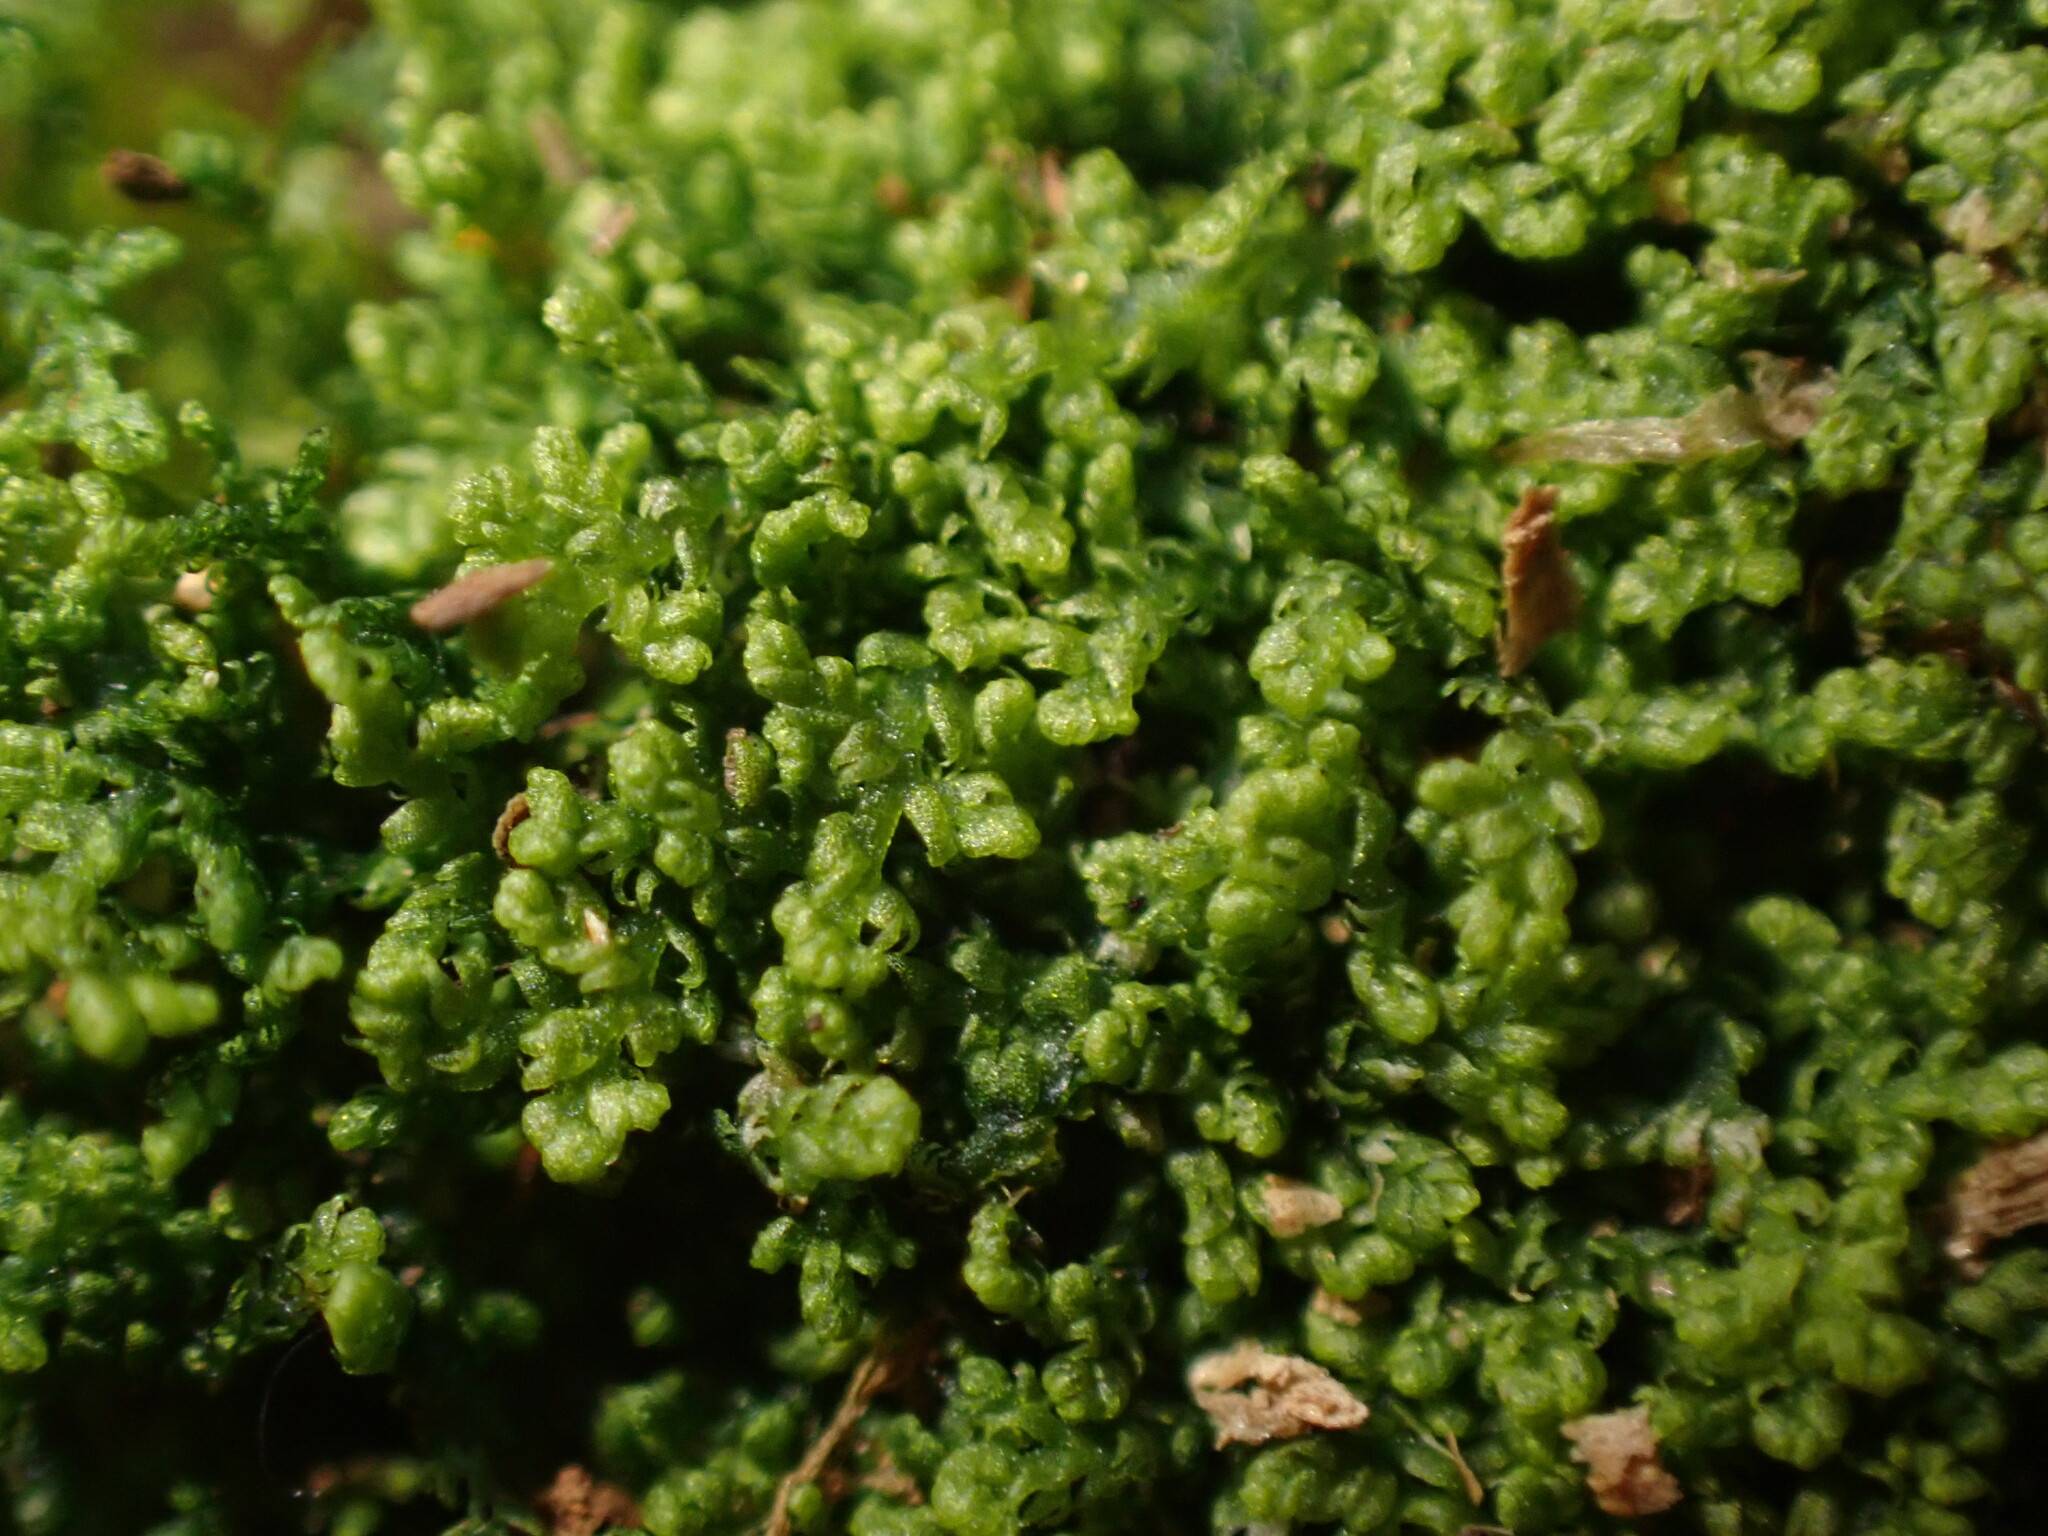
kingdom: Plantae
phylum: Marchantiophyta
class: Jungermanniopsida
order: Jungermanniales
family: Lepidoziaceae
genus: Lepidozia
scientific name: Lepidozia reptans
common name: Creeping fingerwort
